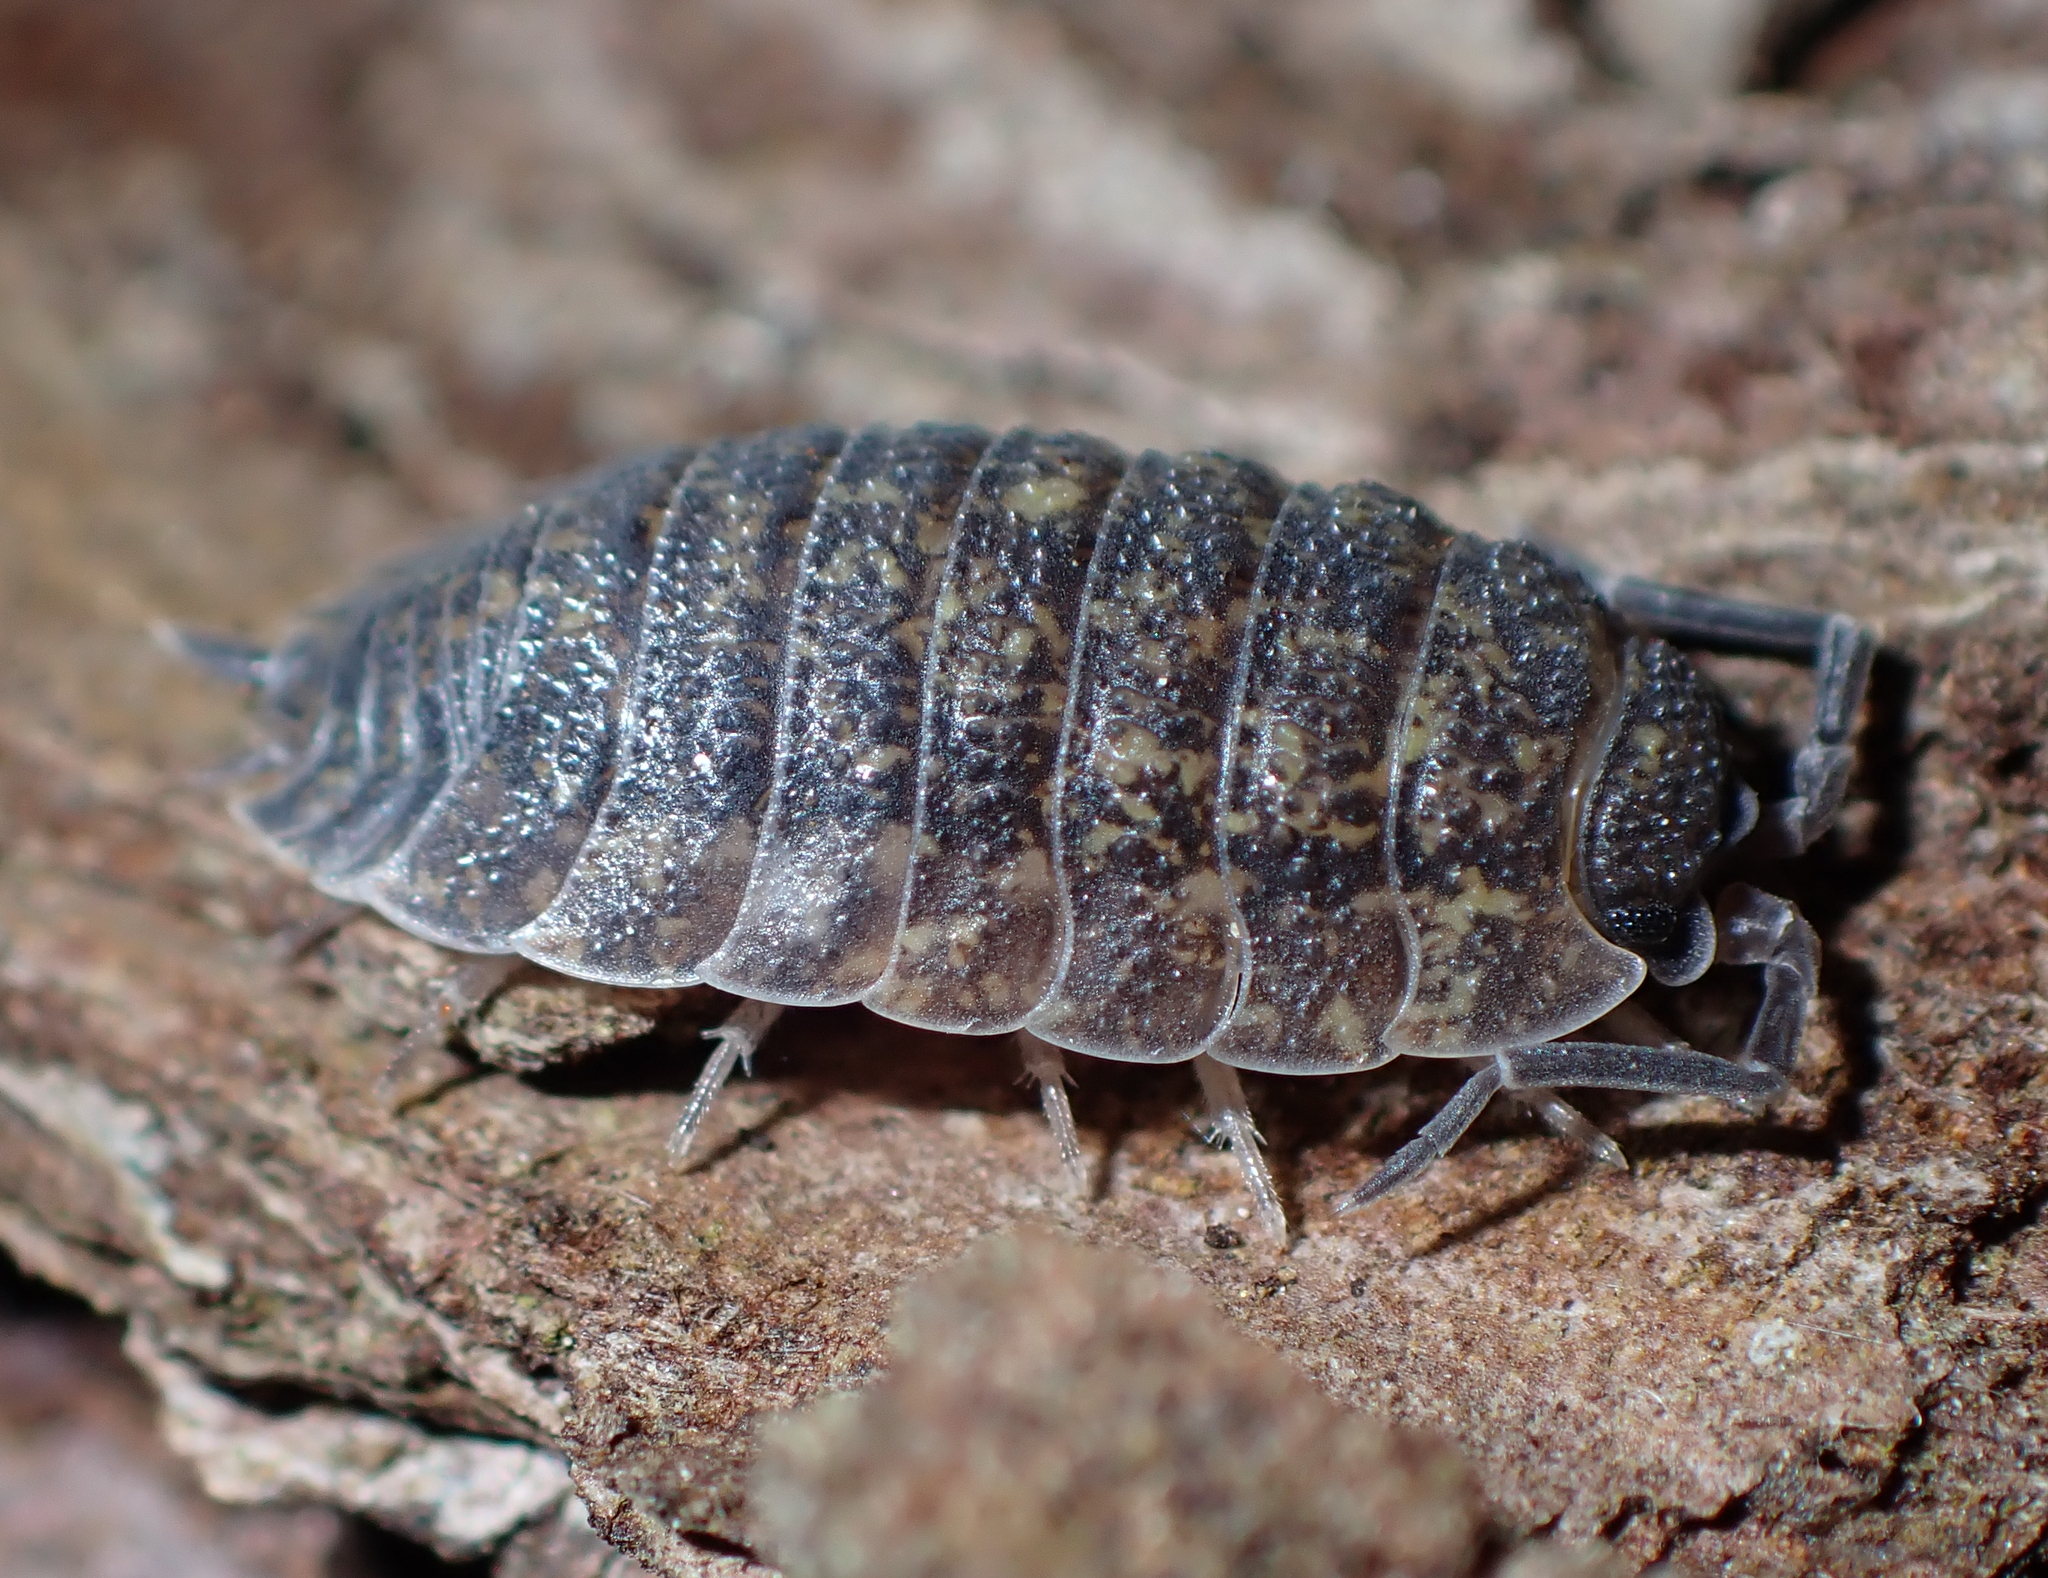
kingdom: Animalia
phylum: Arthropoda
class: Malacostraca
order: Isopoda
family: Porcellionidae
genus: Porcellio
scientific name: Porcellio scaber
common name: Common rough woodlouse
